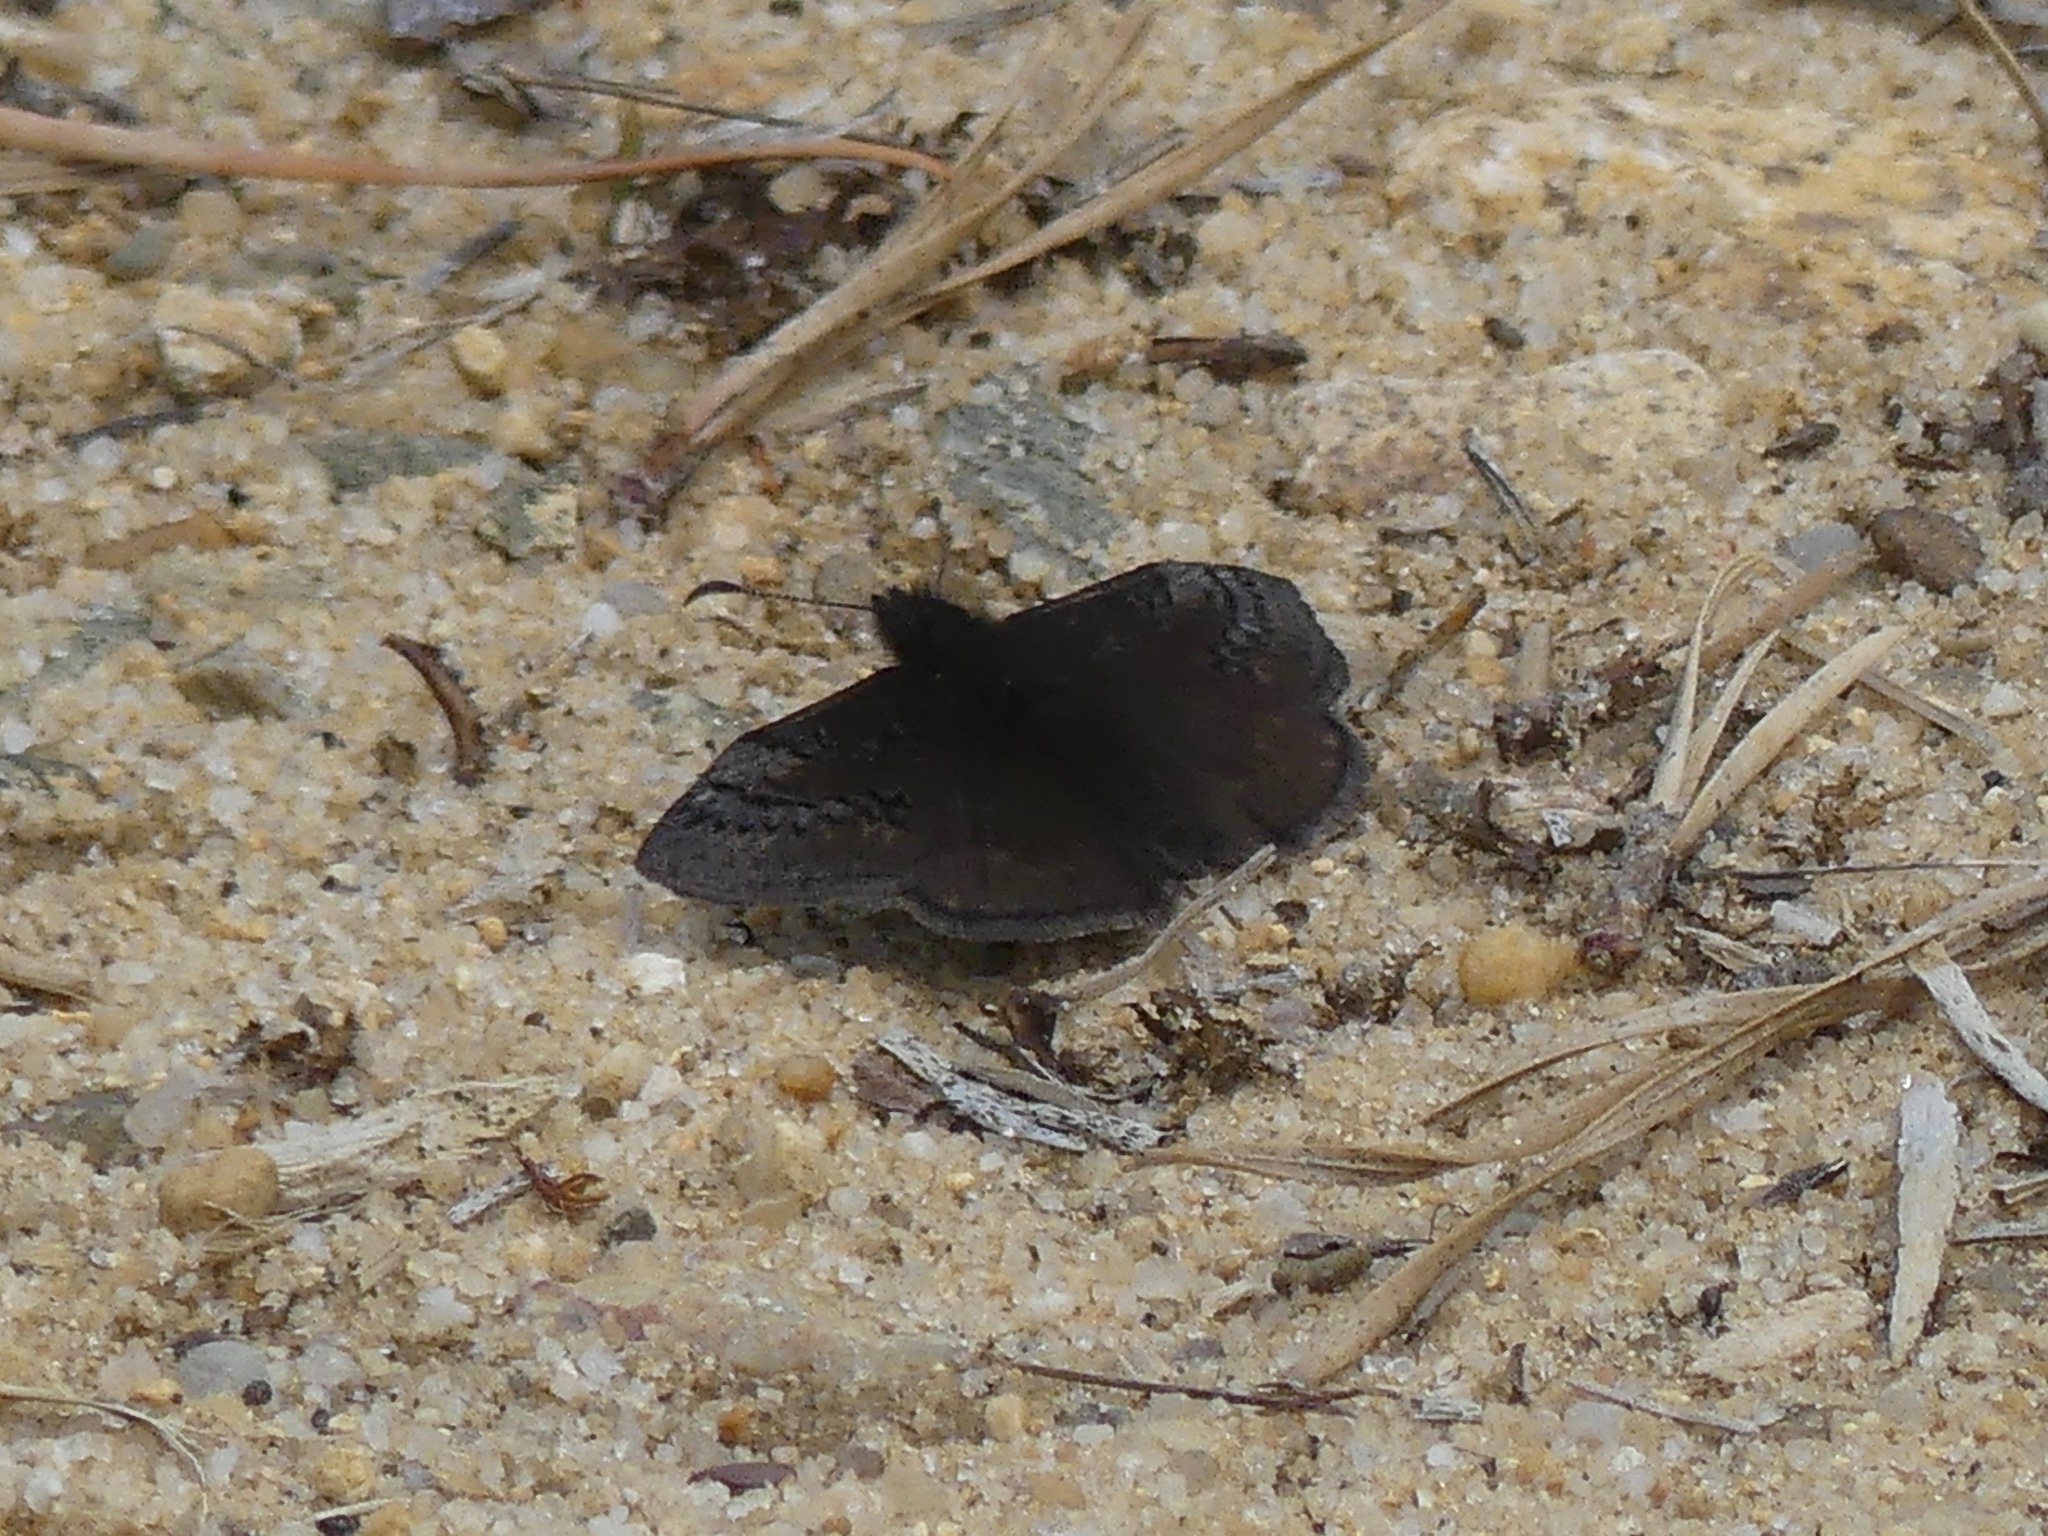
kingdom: Animalia
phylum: Arthropoda
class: Insecta
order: Lepidoptera
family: Hesperiidae
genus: Erynnis
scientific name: Erynnis brizo
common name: Sleepy duskywing
